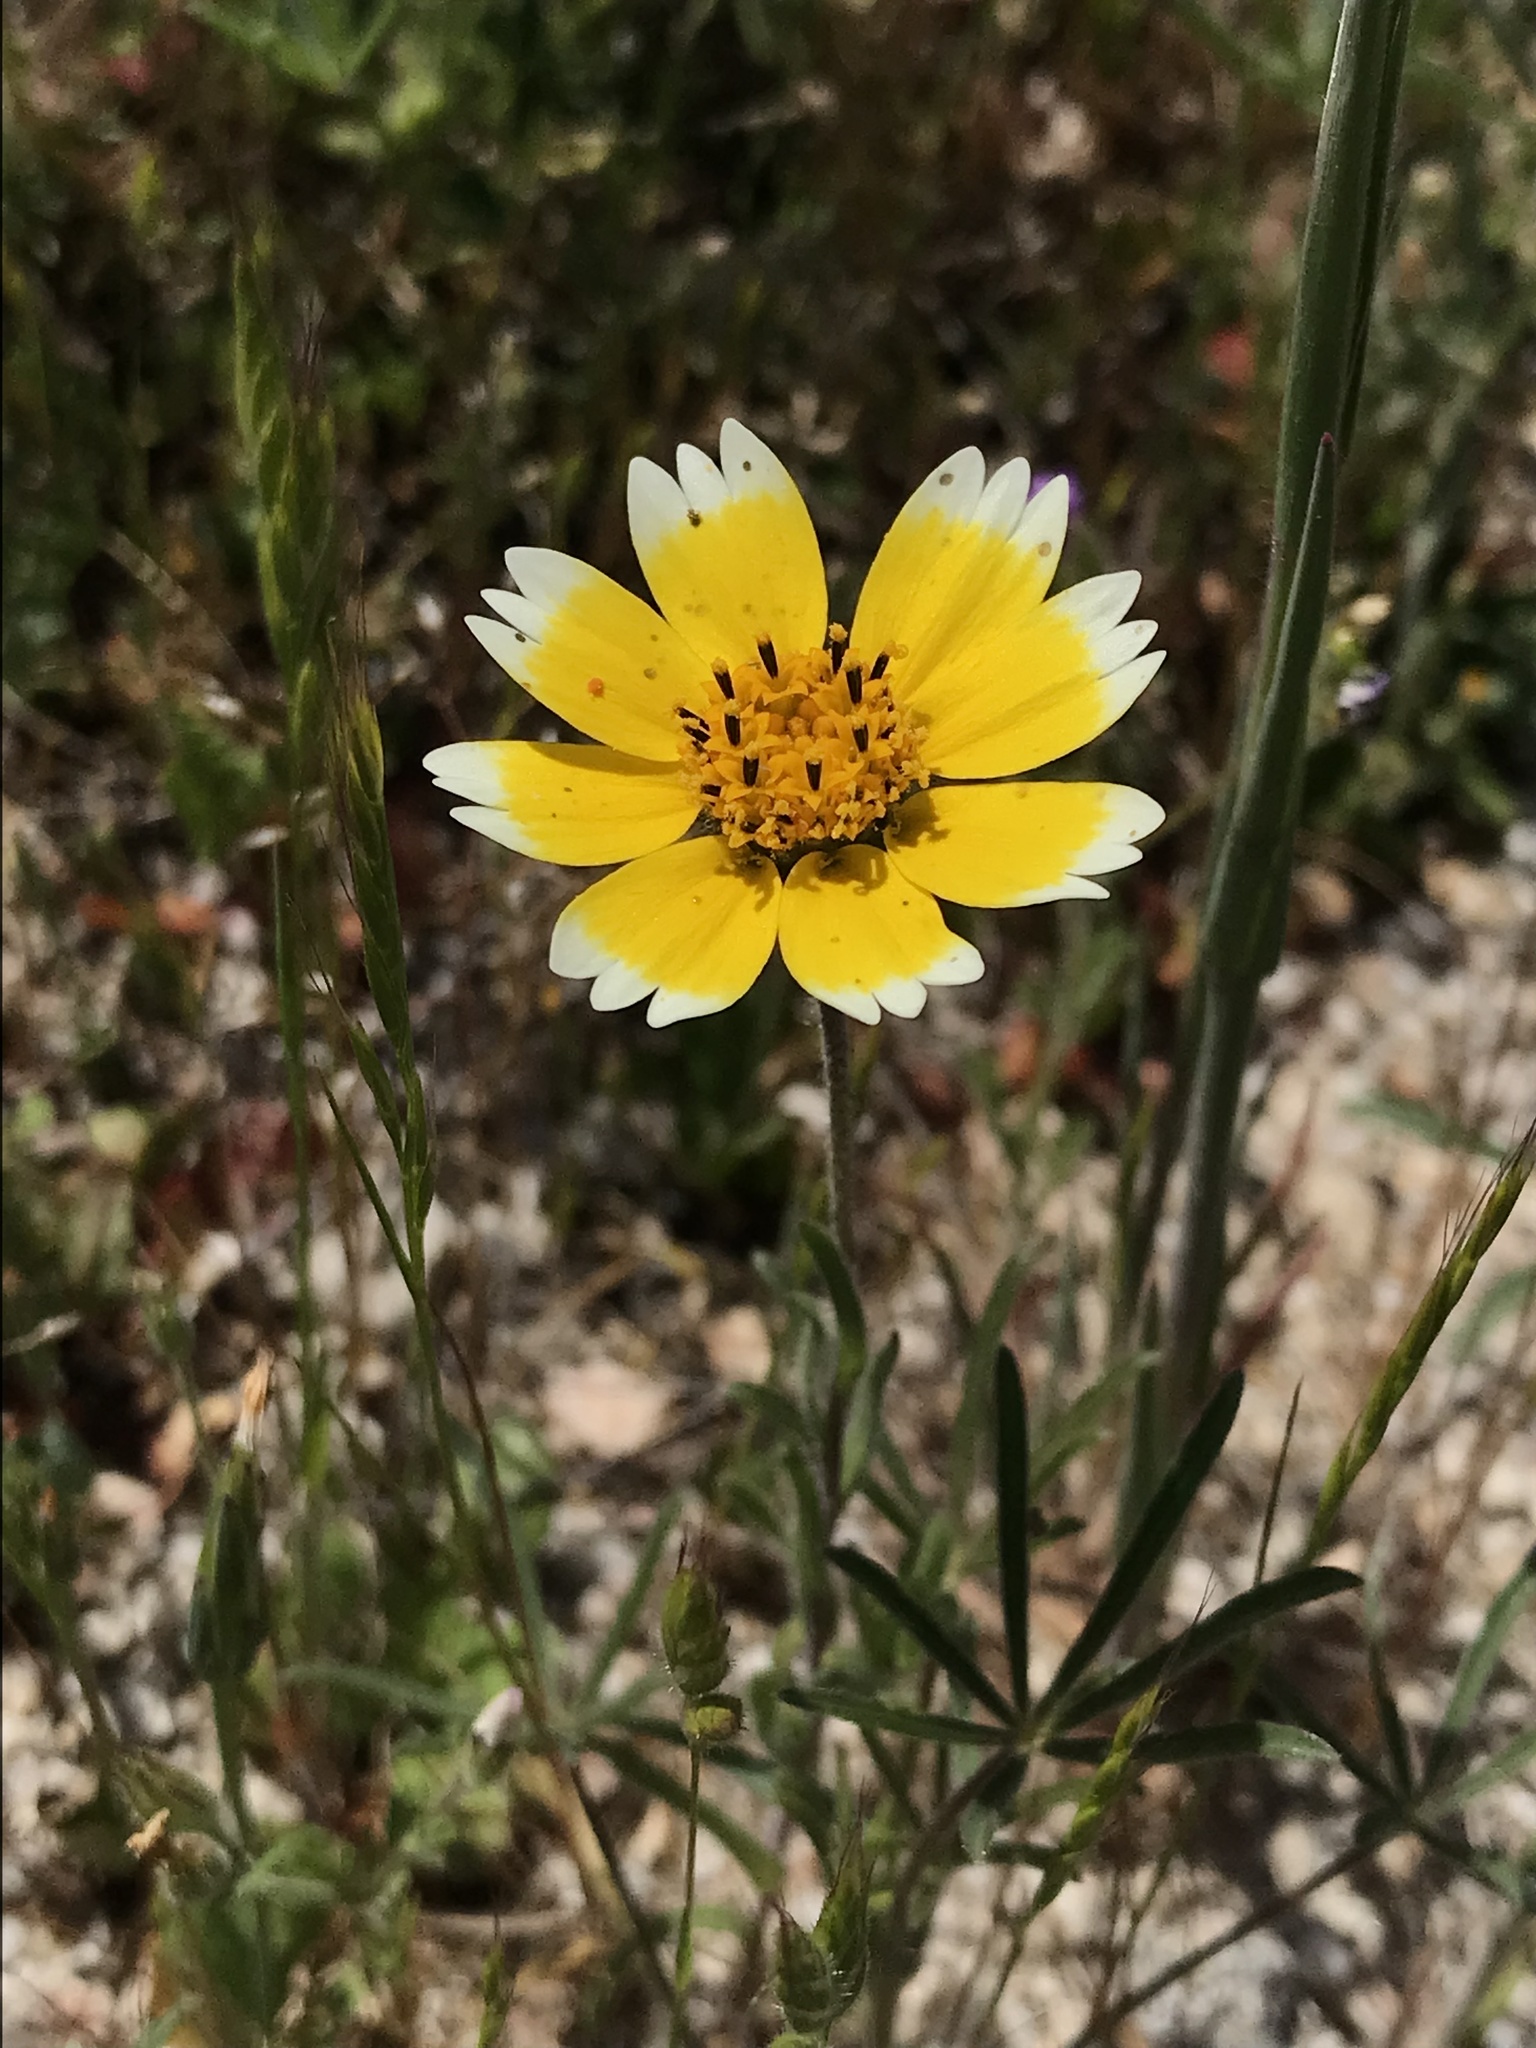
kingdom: Plantae
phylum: Tracheophyta
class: Magnoliopsida
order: Asterales
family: Asteraceae
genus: Layia
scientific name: Layia platyglossa
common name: Tidy-tips
